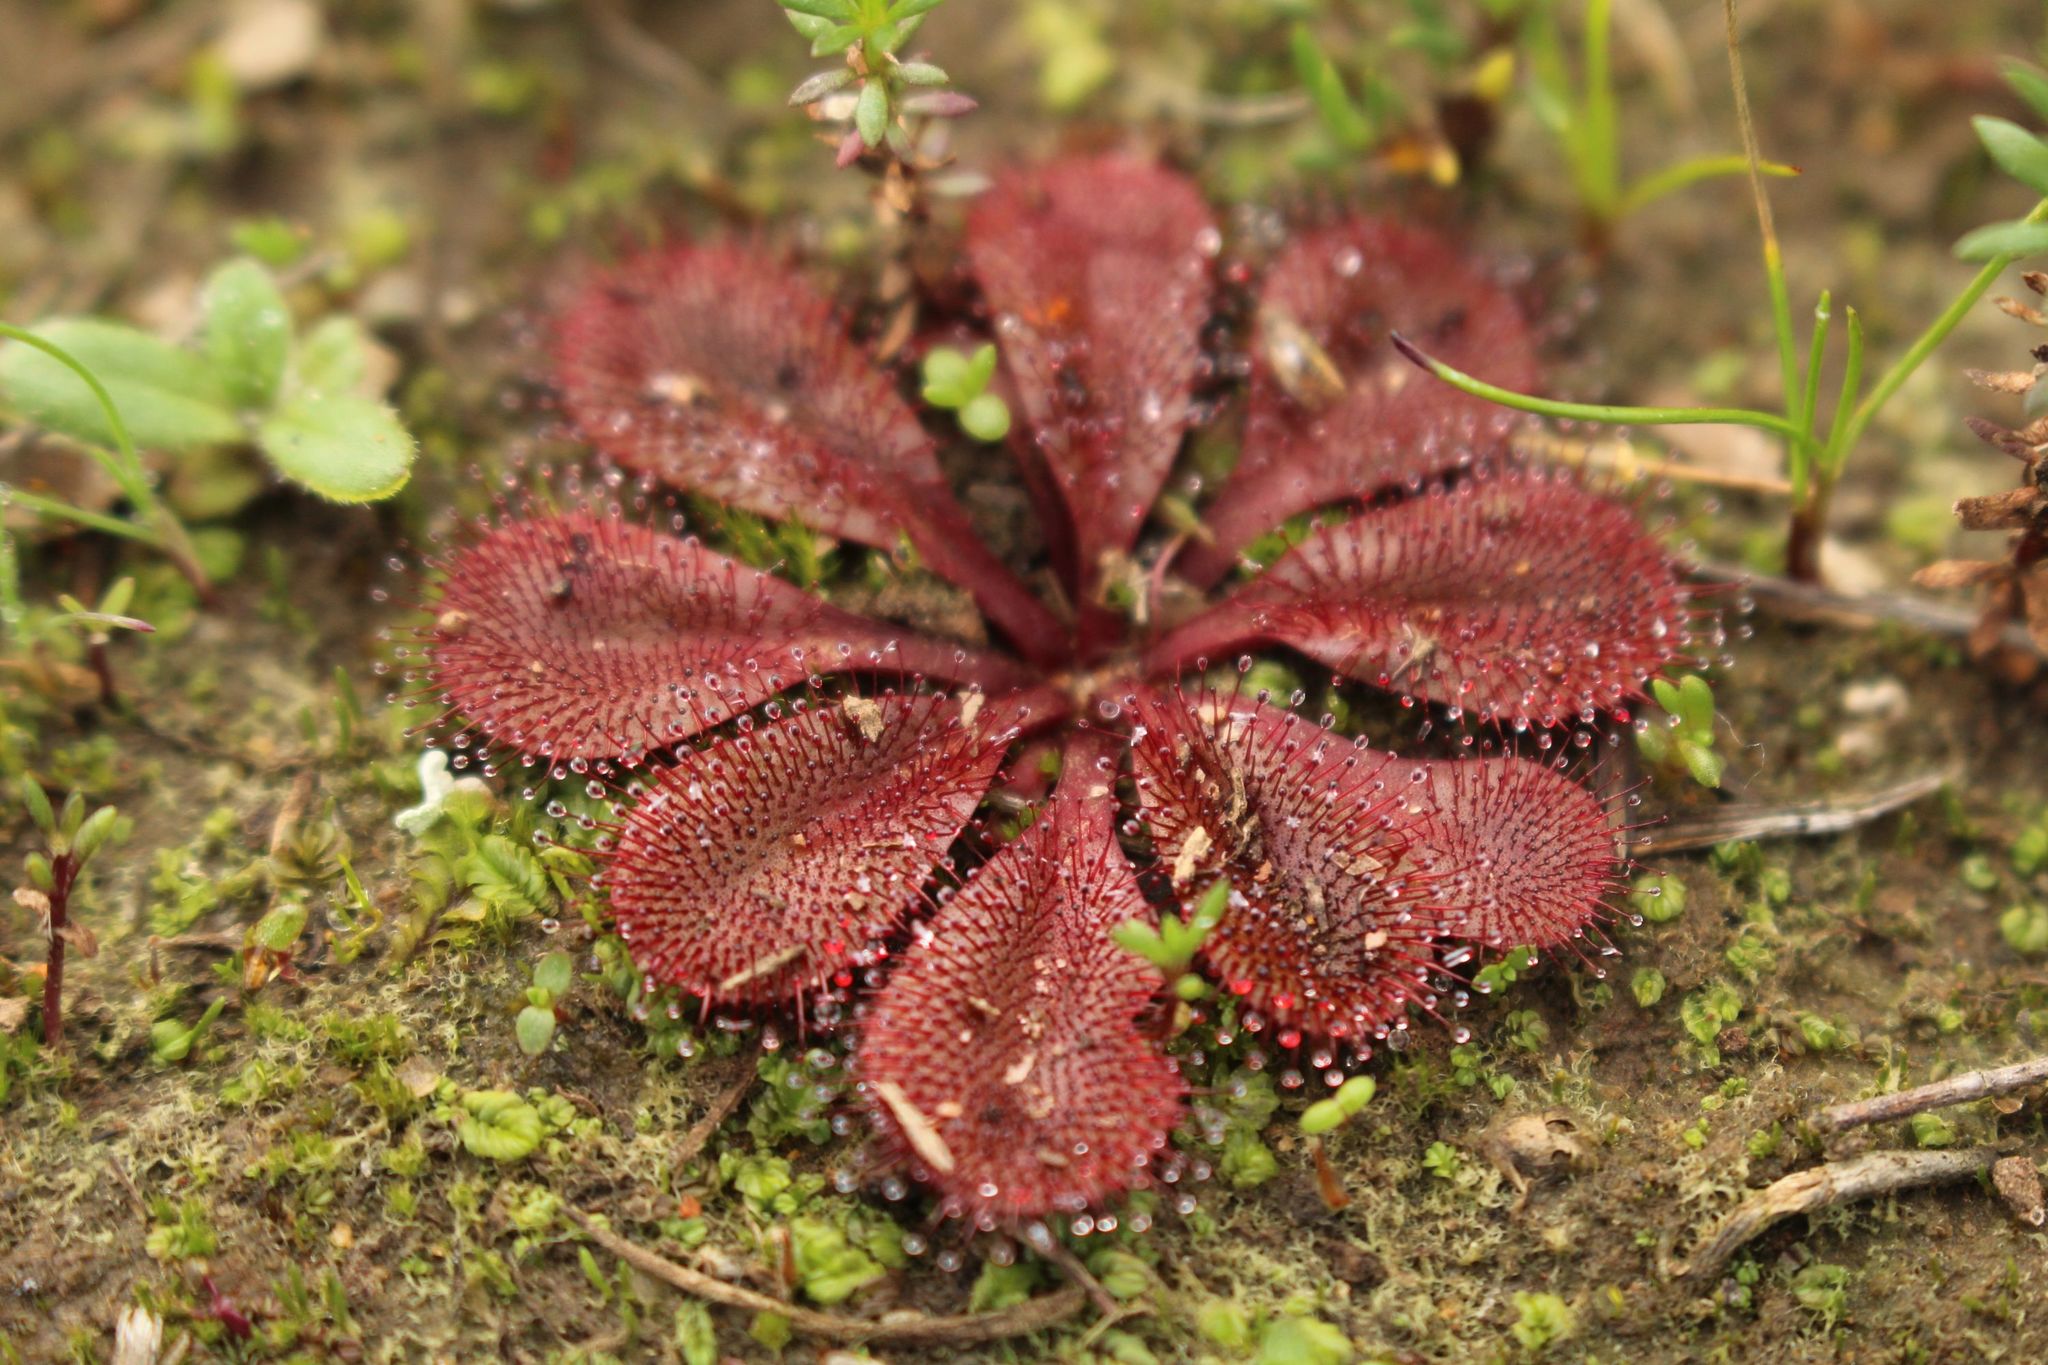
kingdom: Plantae
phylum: Tracheophyta
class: Magnoliopsida
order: Caryophyllales
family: Droseraceae
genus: Drosera
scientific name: Drosera rosulata
